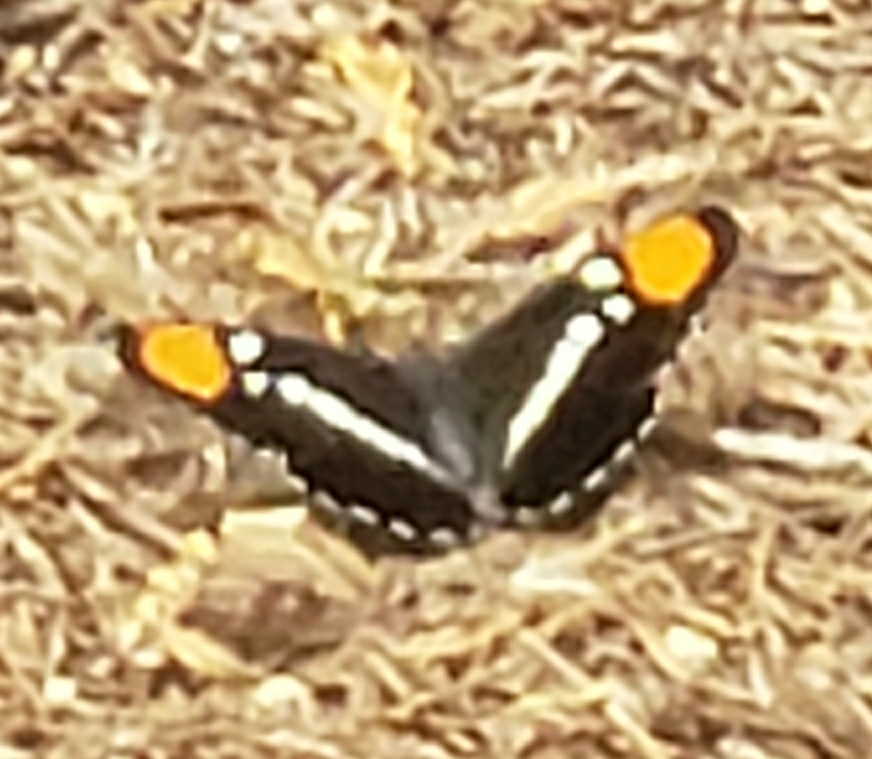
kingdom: Animalia
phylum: Arthropoda
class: Insecta
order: Lepidoptera
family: Nymphalidae
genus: Limenitis
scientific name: Limenitis bredowii
